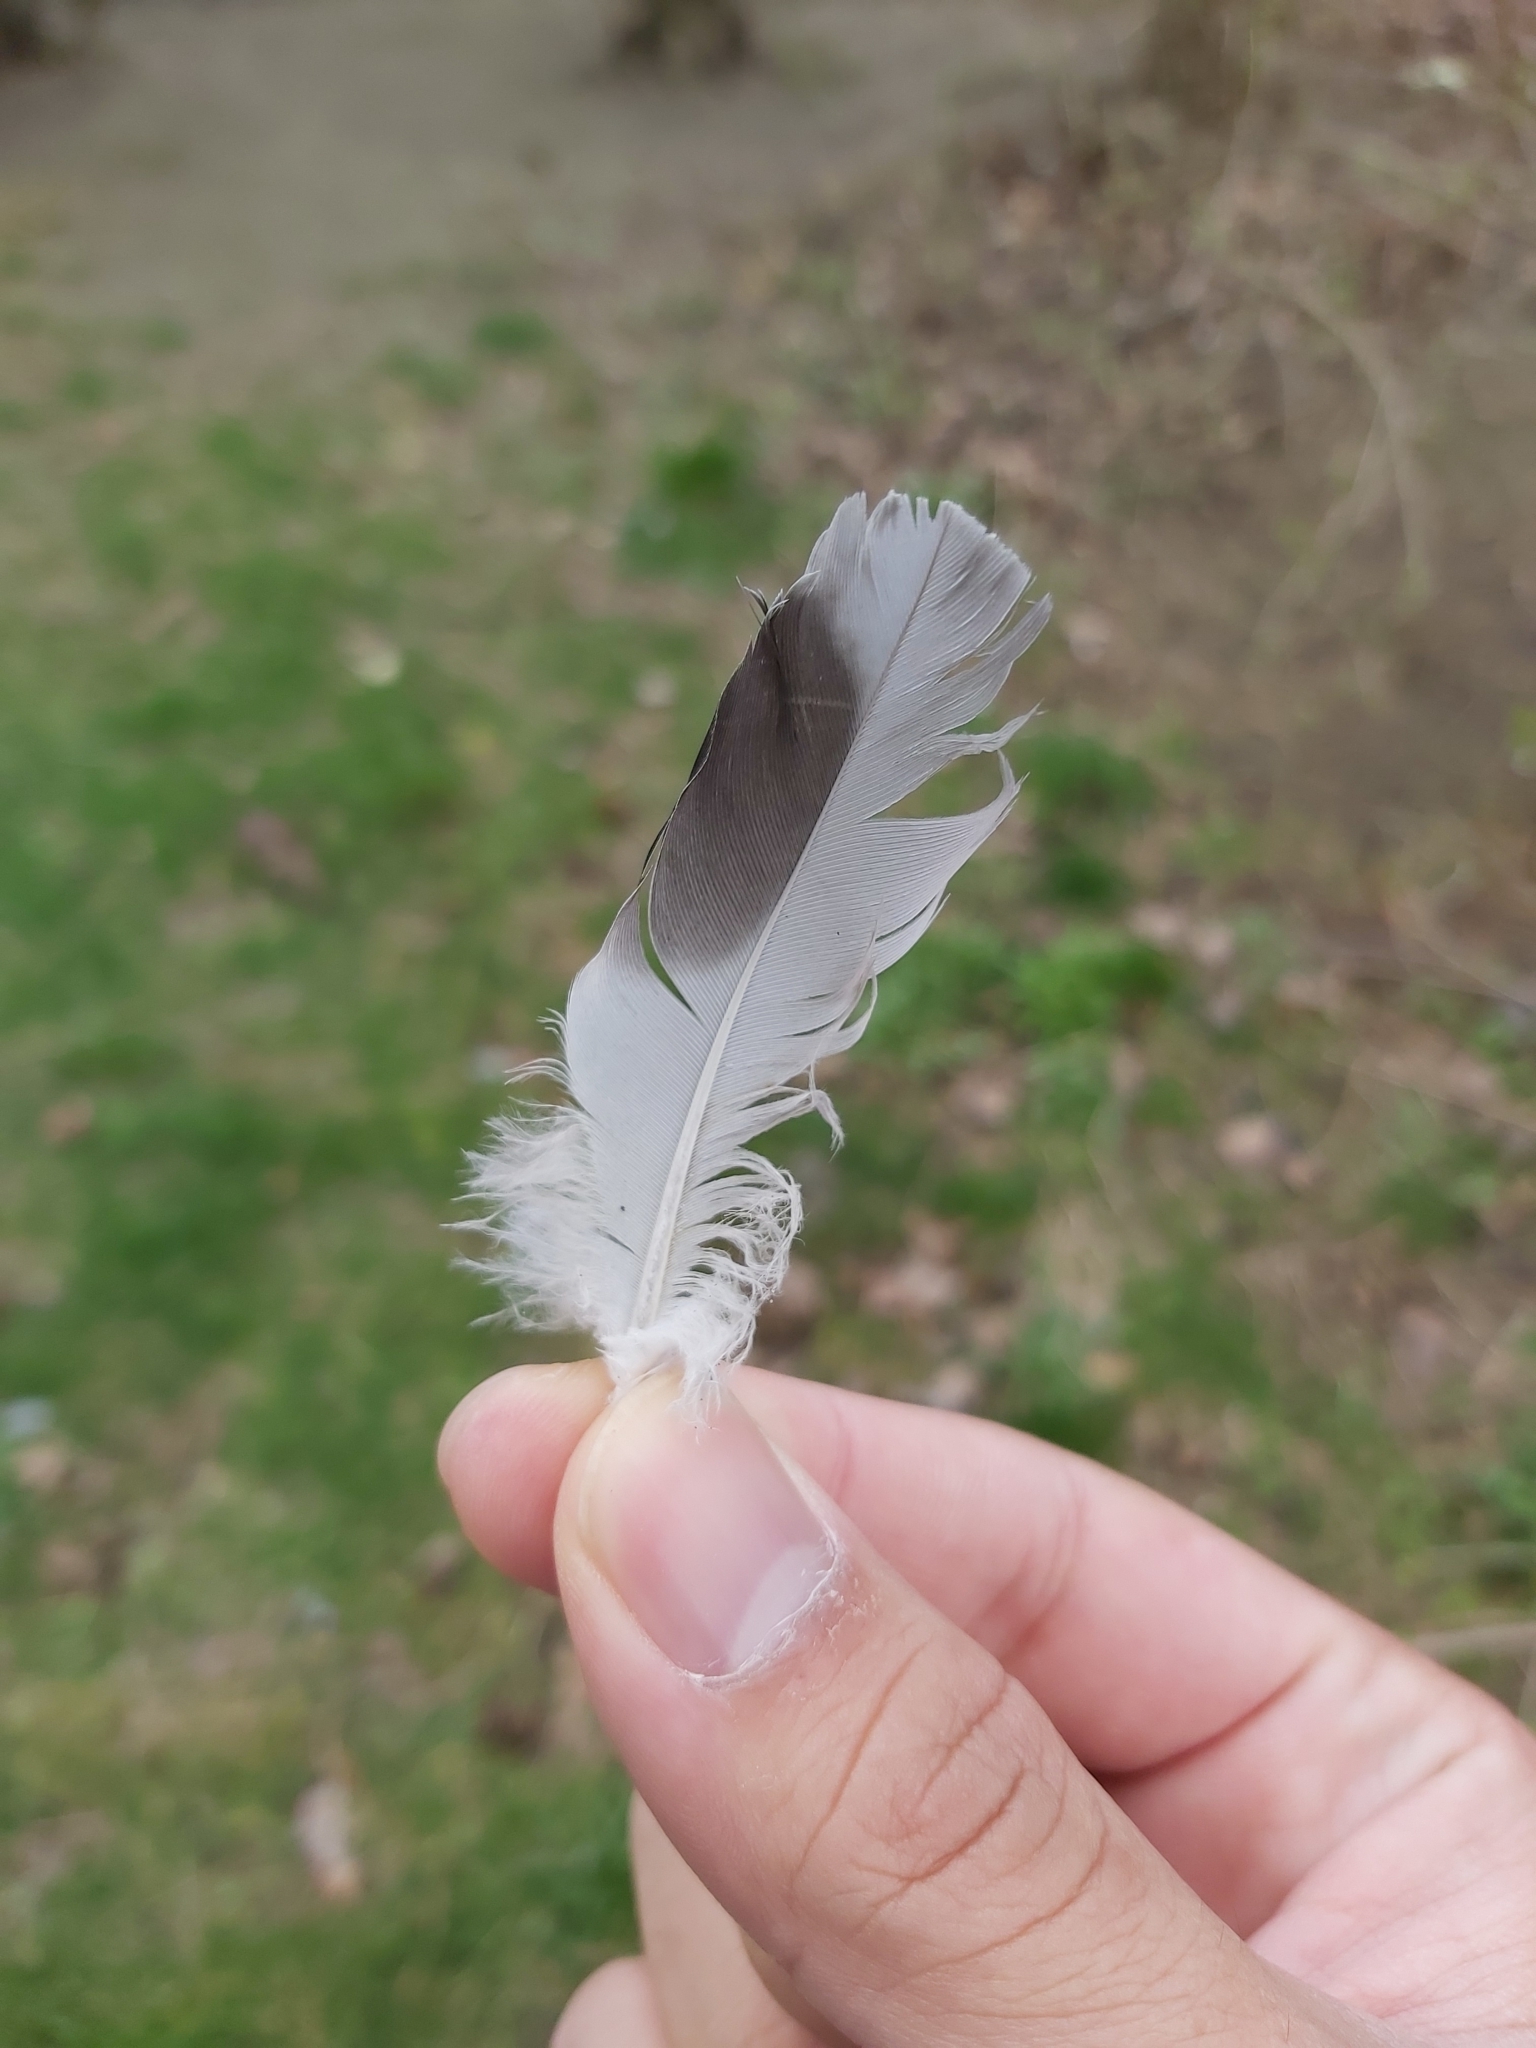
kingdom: Animalia
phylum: Chordata
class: Aves
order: Columbiformes
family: Columbidae
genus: Columba
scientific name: Columba livia
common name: Rock pigeon
